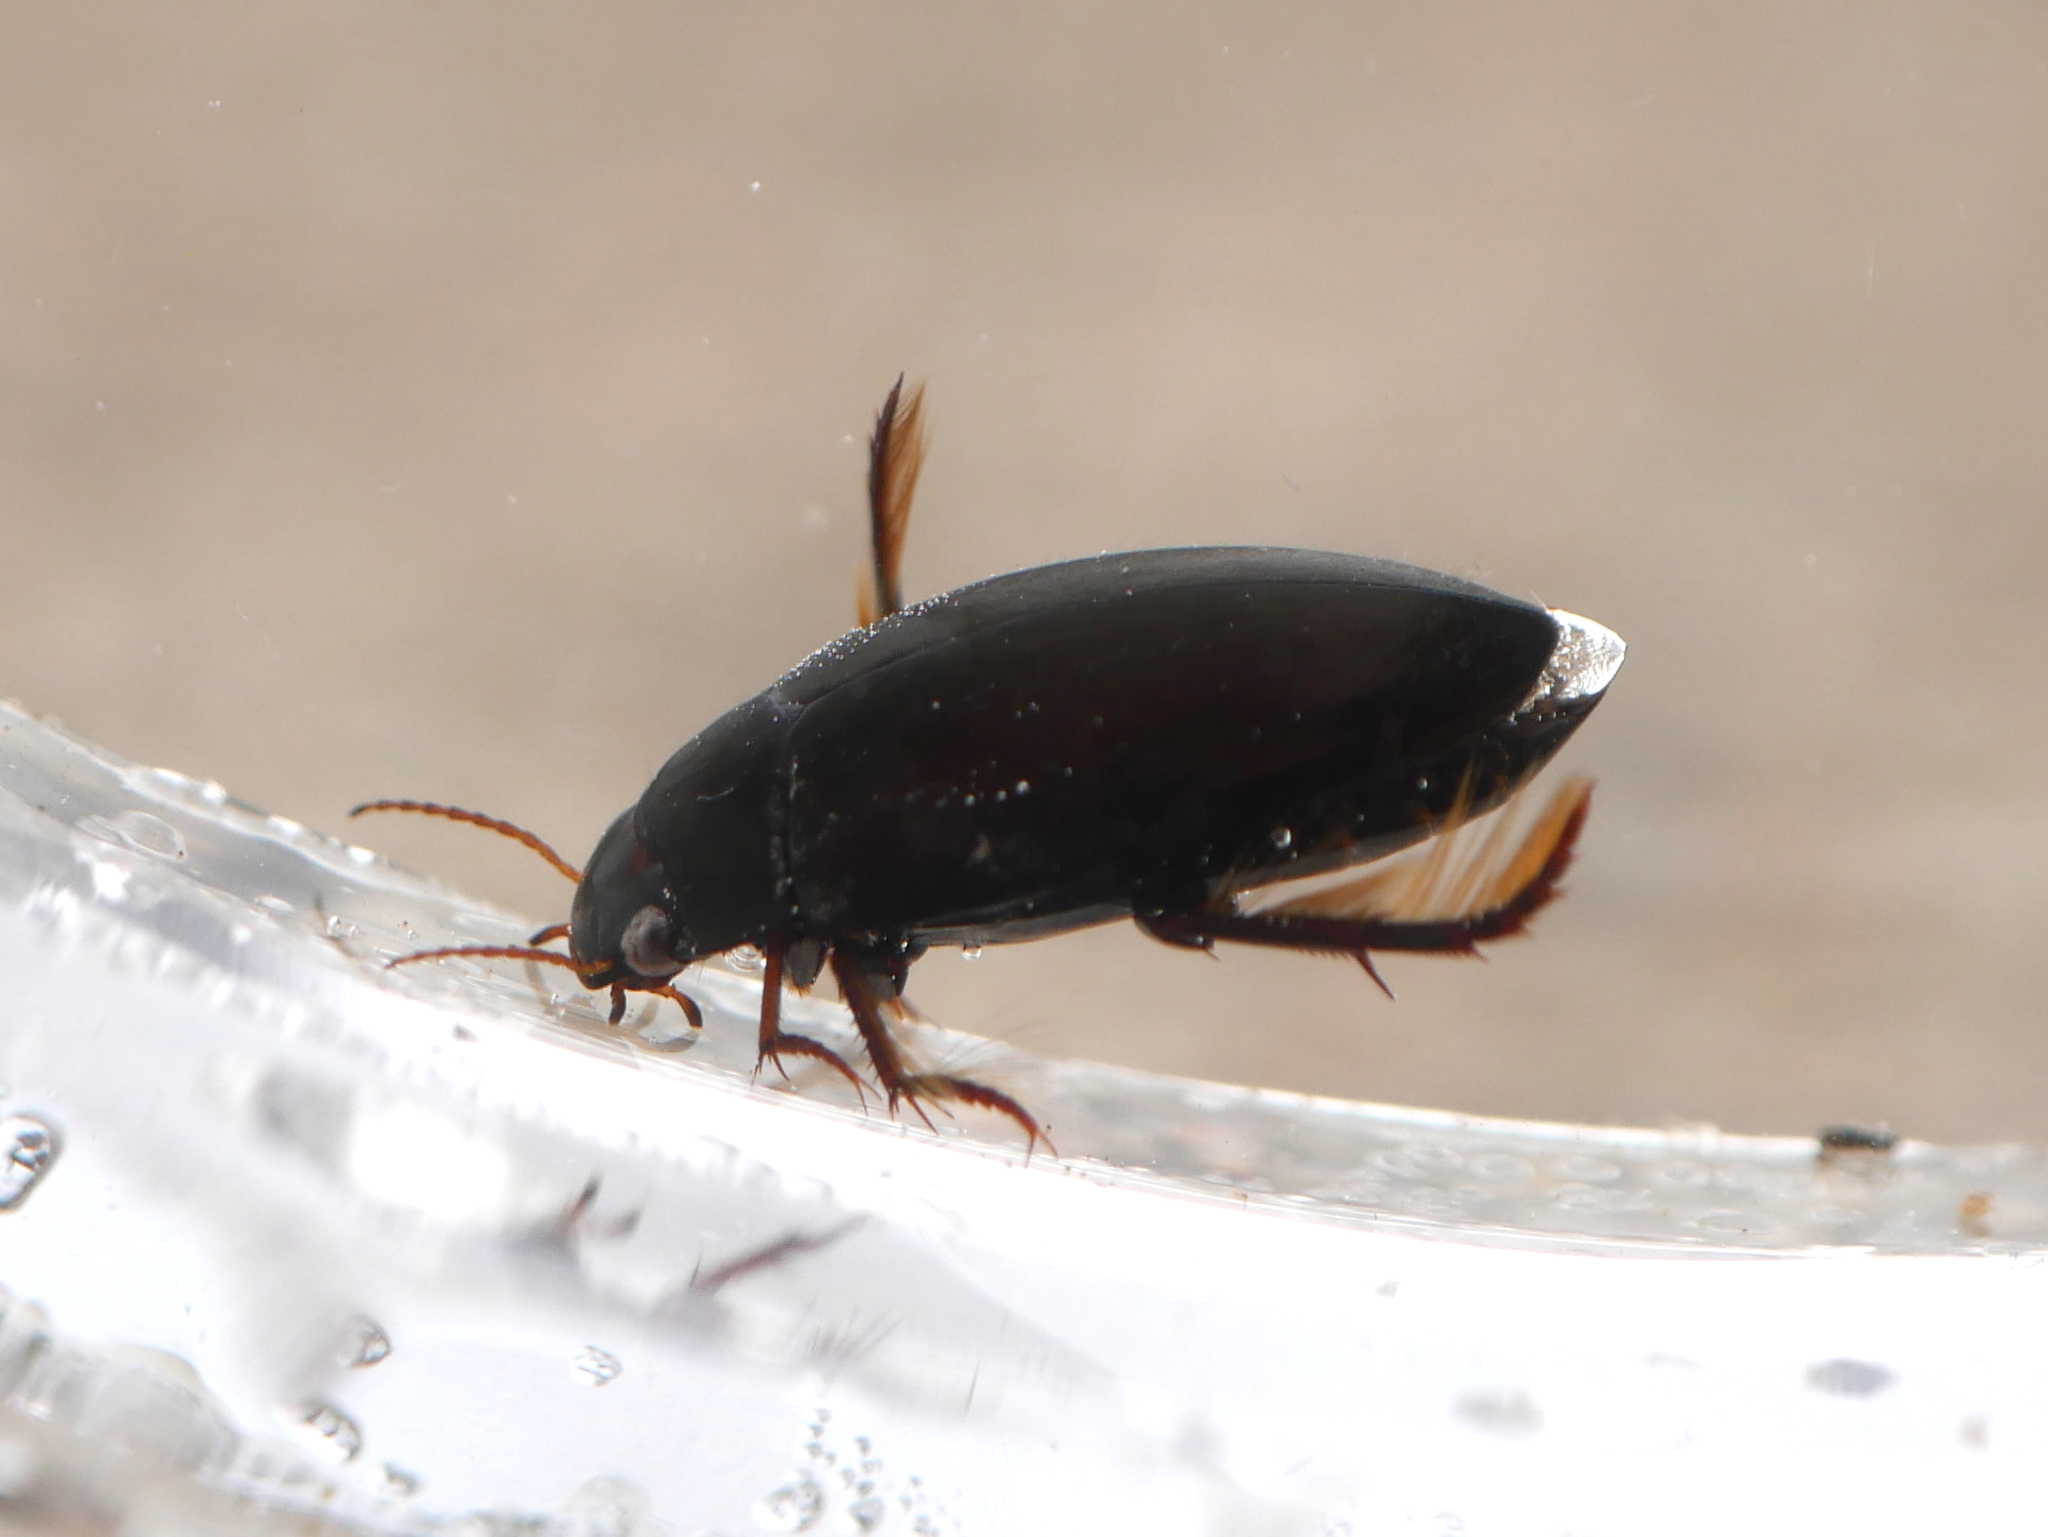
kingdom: Animalia
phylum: Arthropoda
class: Insecta
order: Coleoptera
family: Dytiscidae
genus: Agabus
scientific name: Agabus bipustulatus
